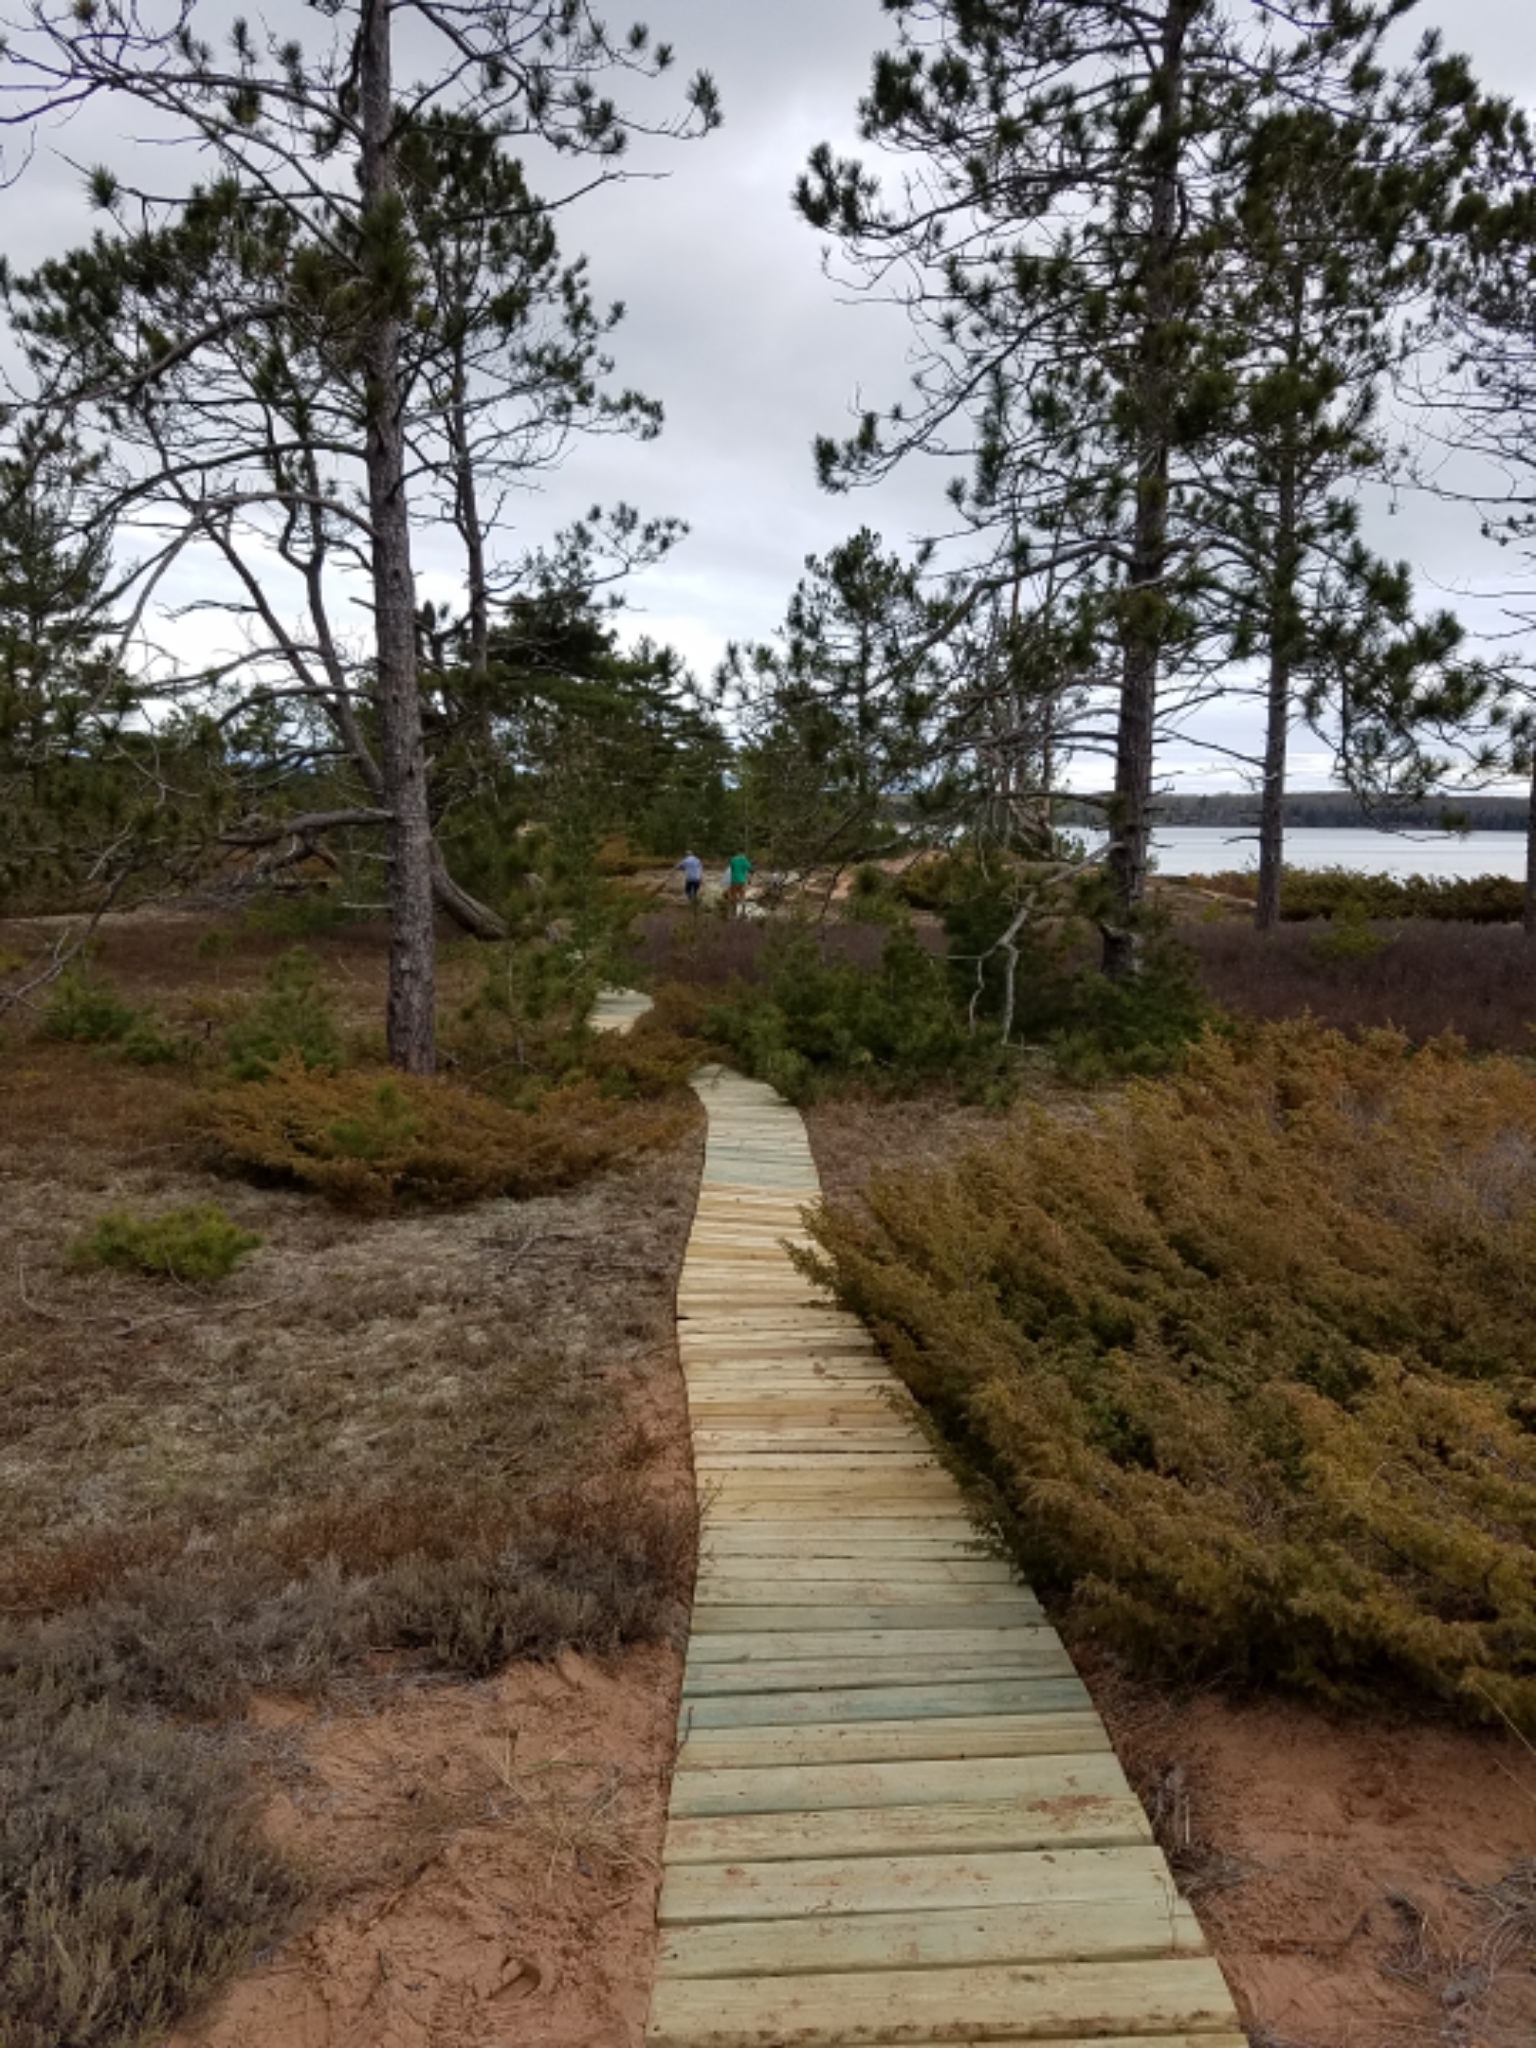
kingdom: Plantae
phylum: Tracheophyta
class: Pinopsida
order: Pinales
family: Cupressaceae
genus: Juniperus
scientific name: Juniperus communis
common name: Common juniper
